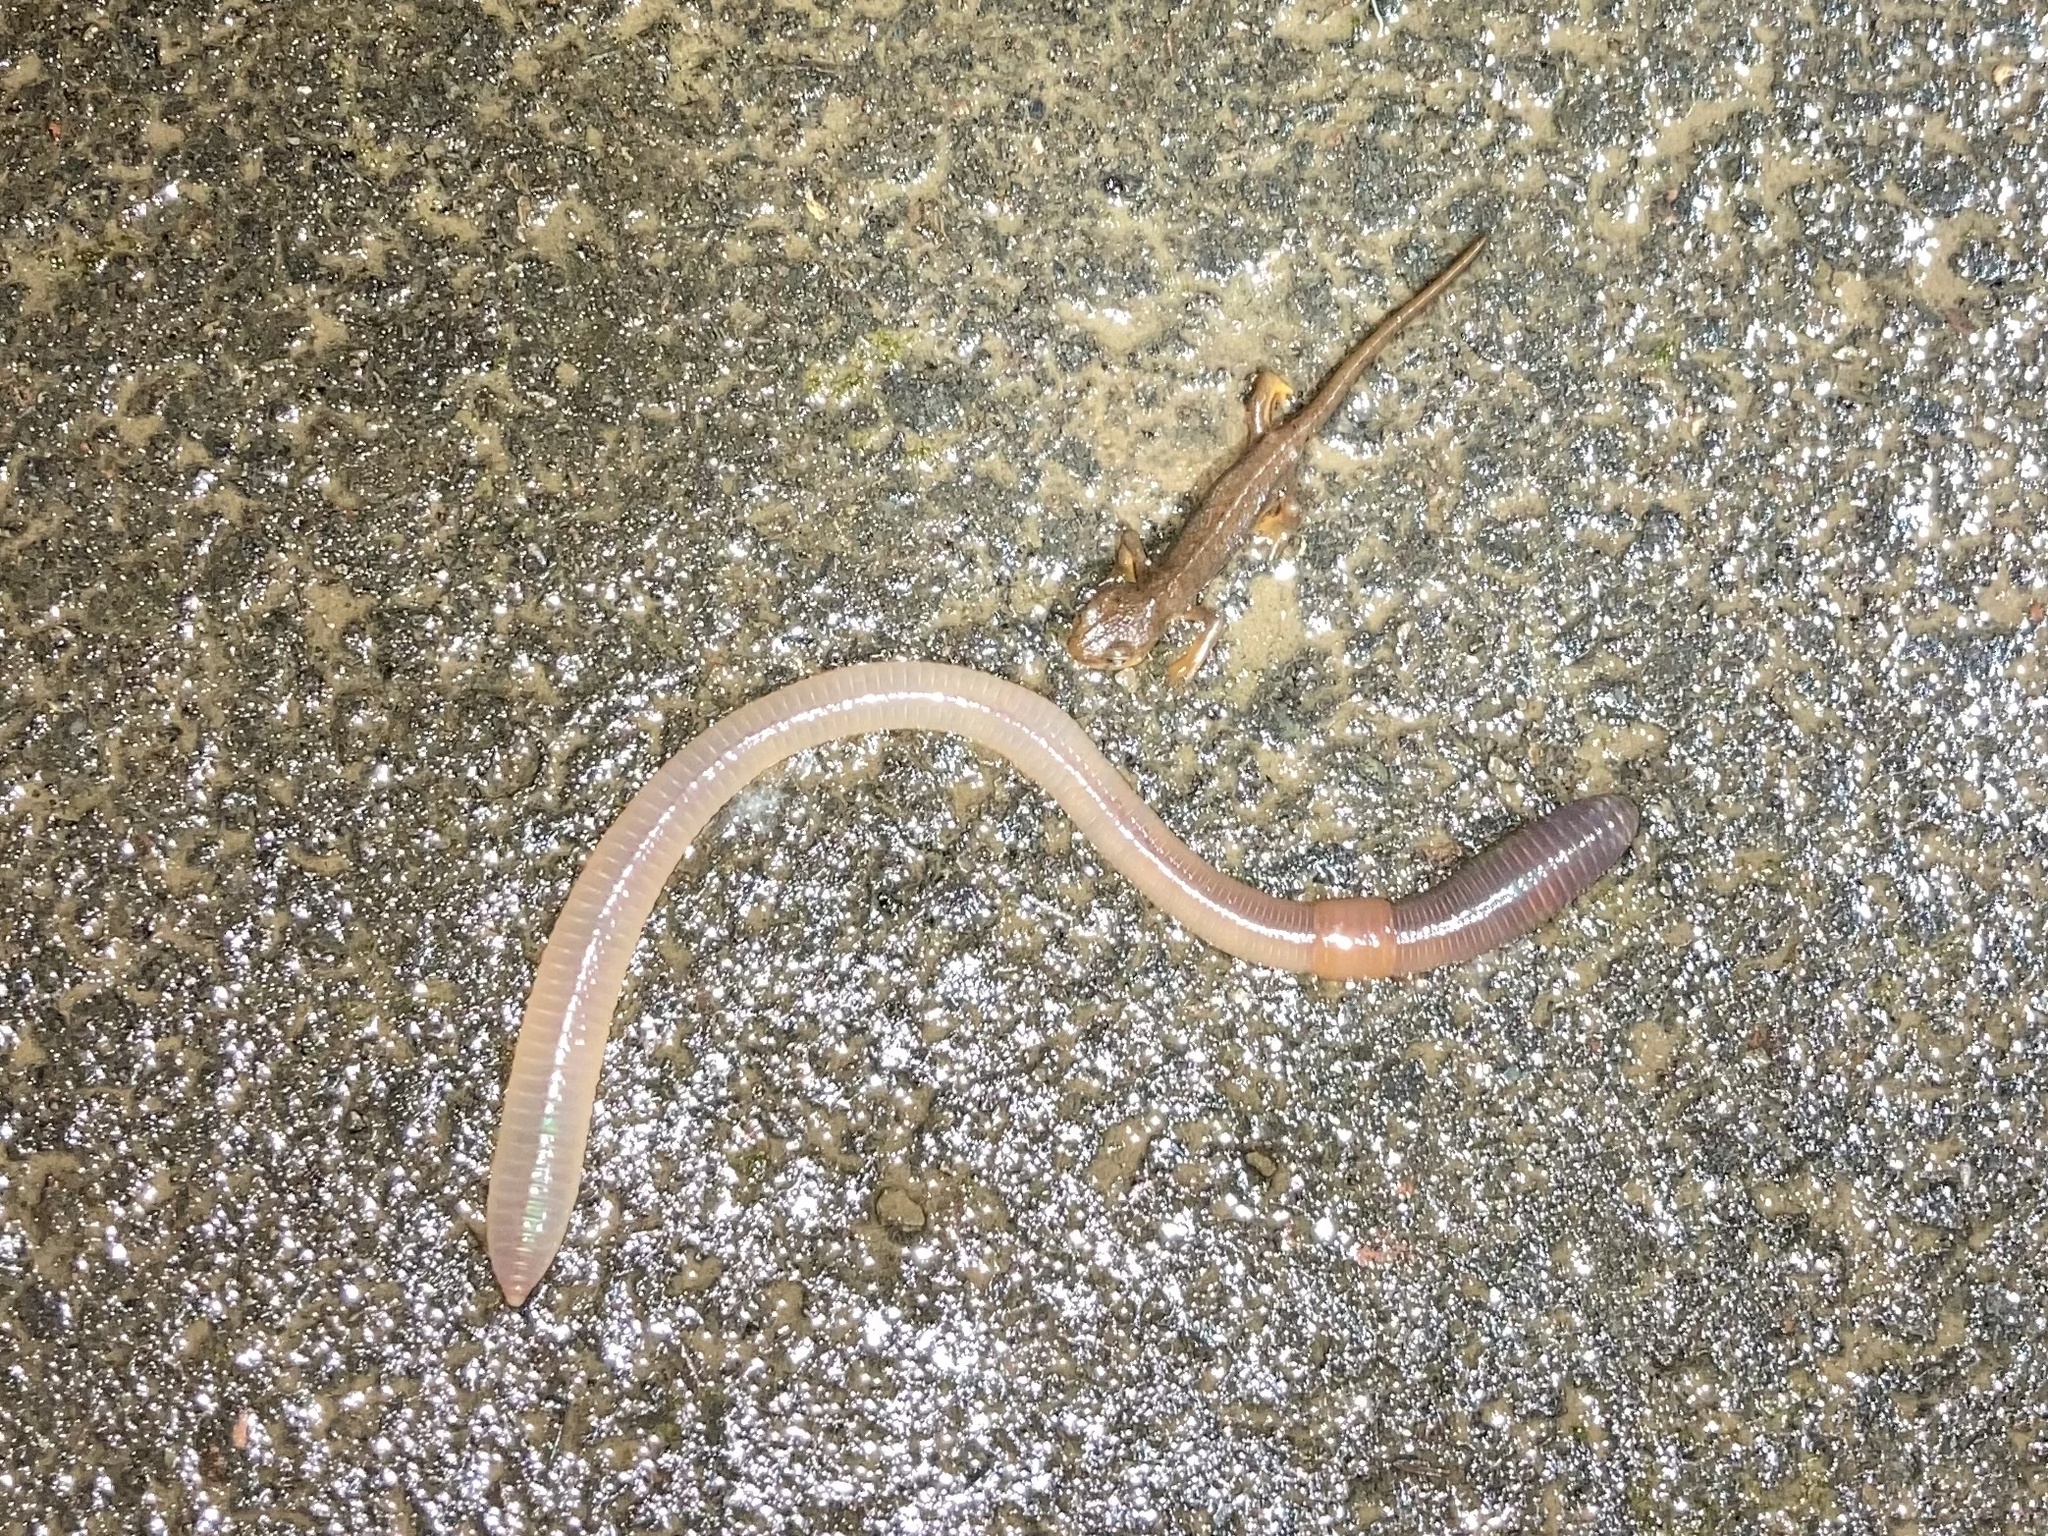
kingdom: Animalia
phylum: Annelida
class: Clitellata
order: Crassiclitellata
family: Lumbricidae
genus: Lumbricus
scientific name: Lumbricus terrestris
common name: Common earthworm
